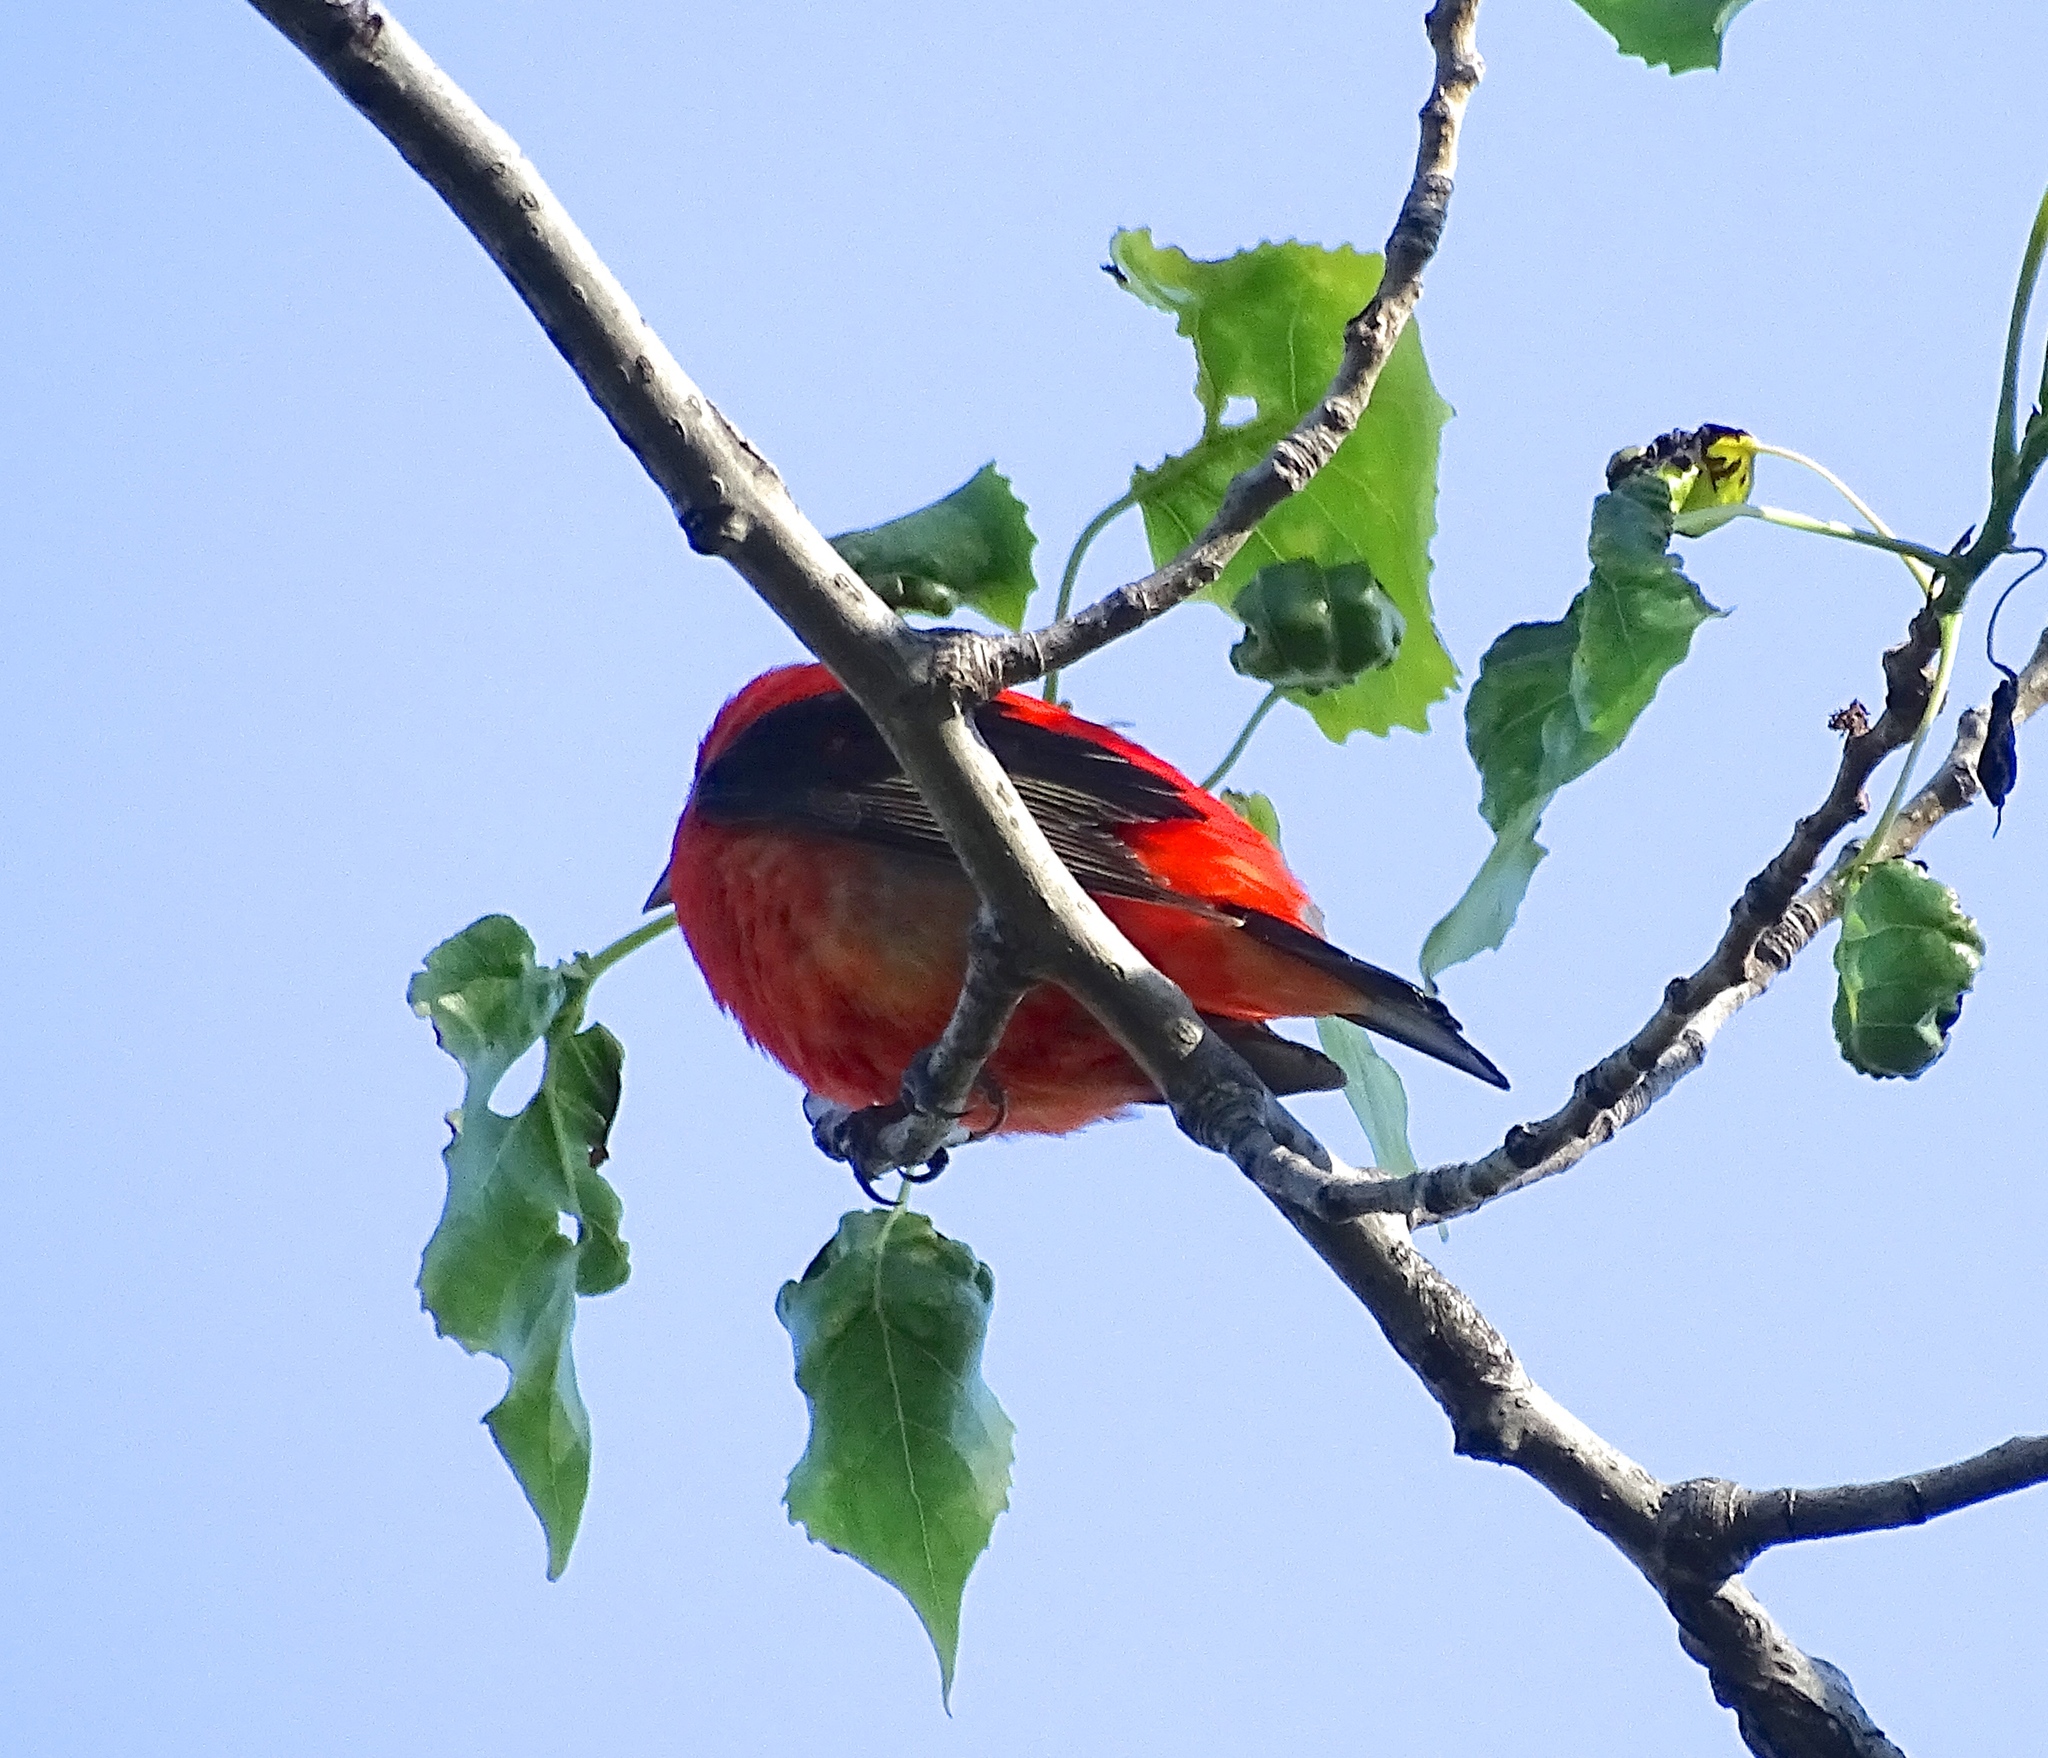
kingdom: Animalia
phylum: Chordata
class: Aves
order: Passeriformes
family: Cardinalidae
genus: Piranga
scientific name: Piranga olivacea
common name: Scarlet tanager
